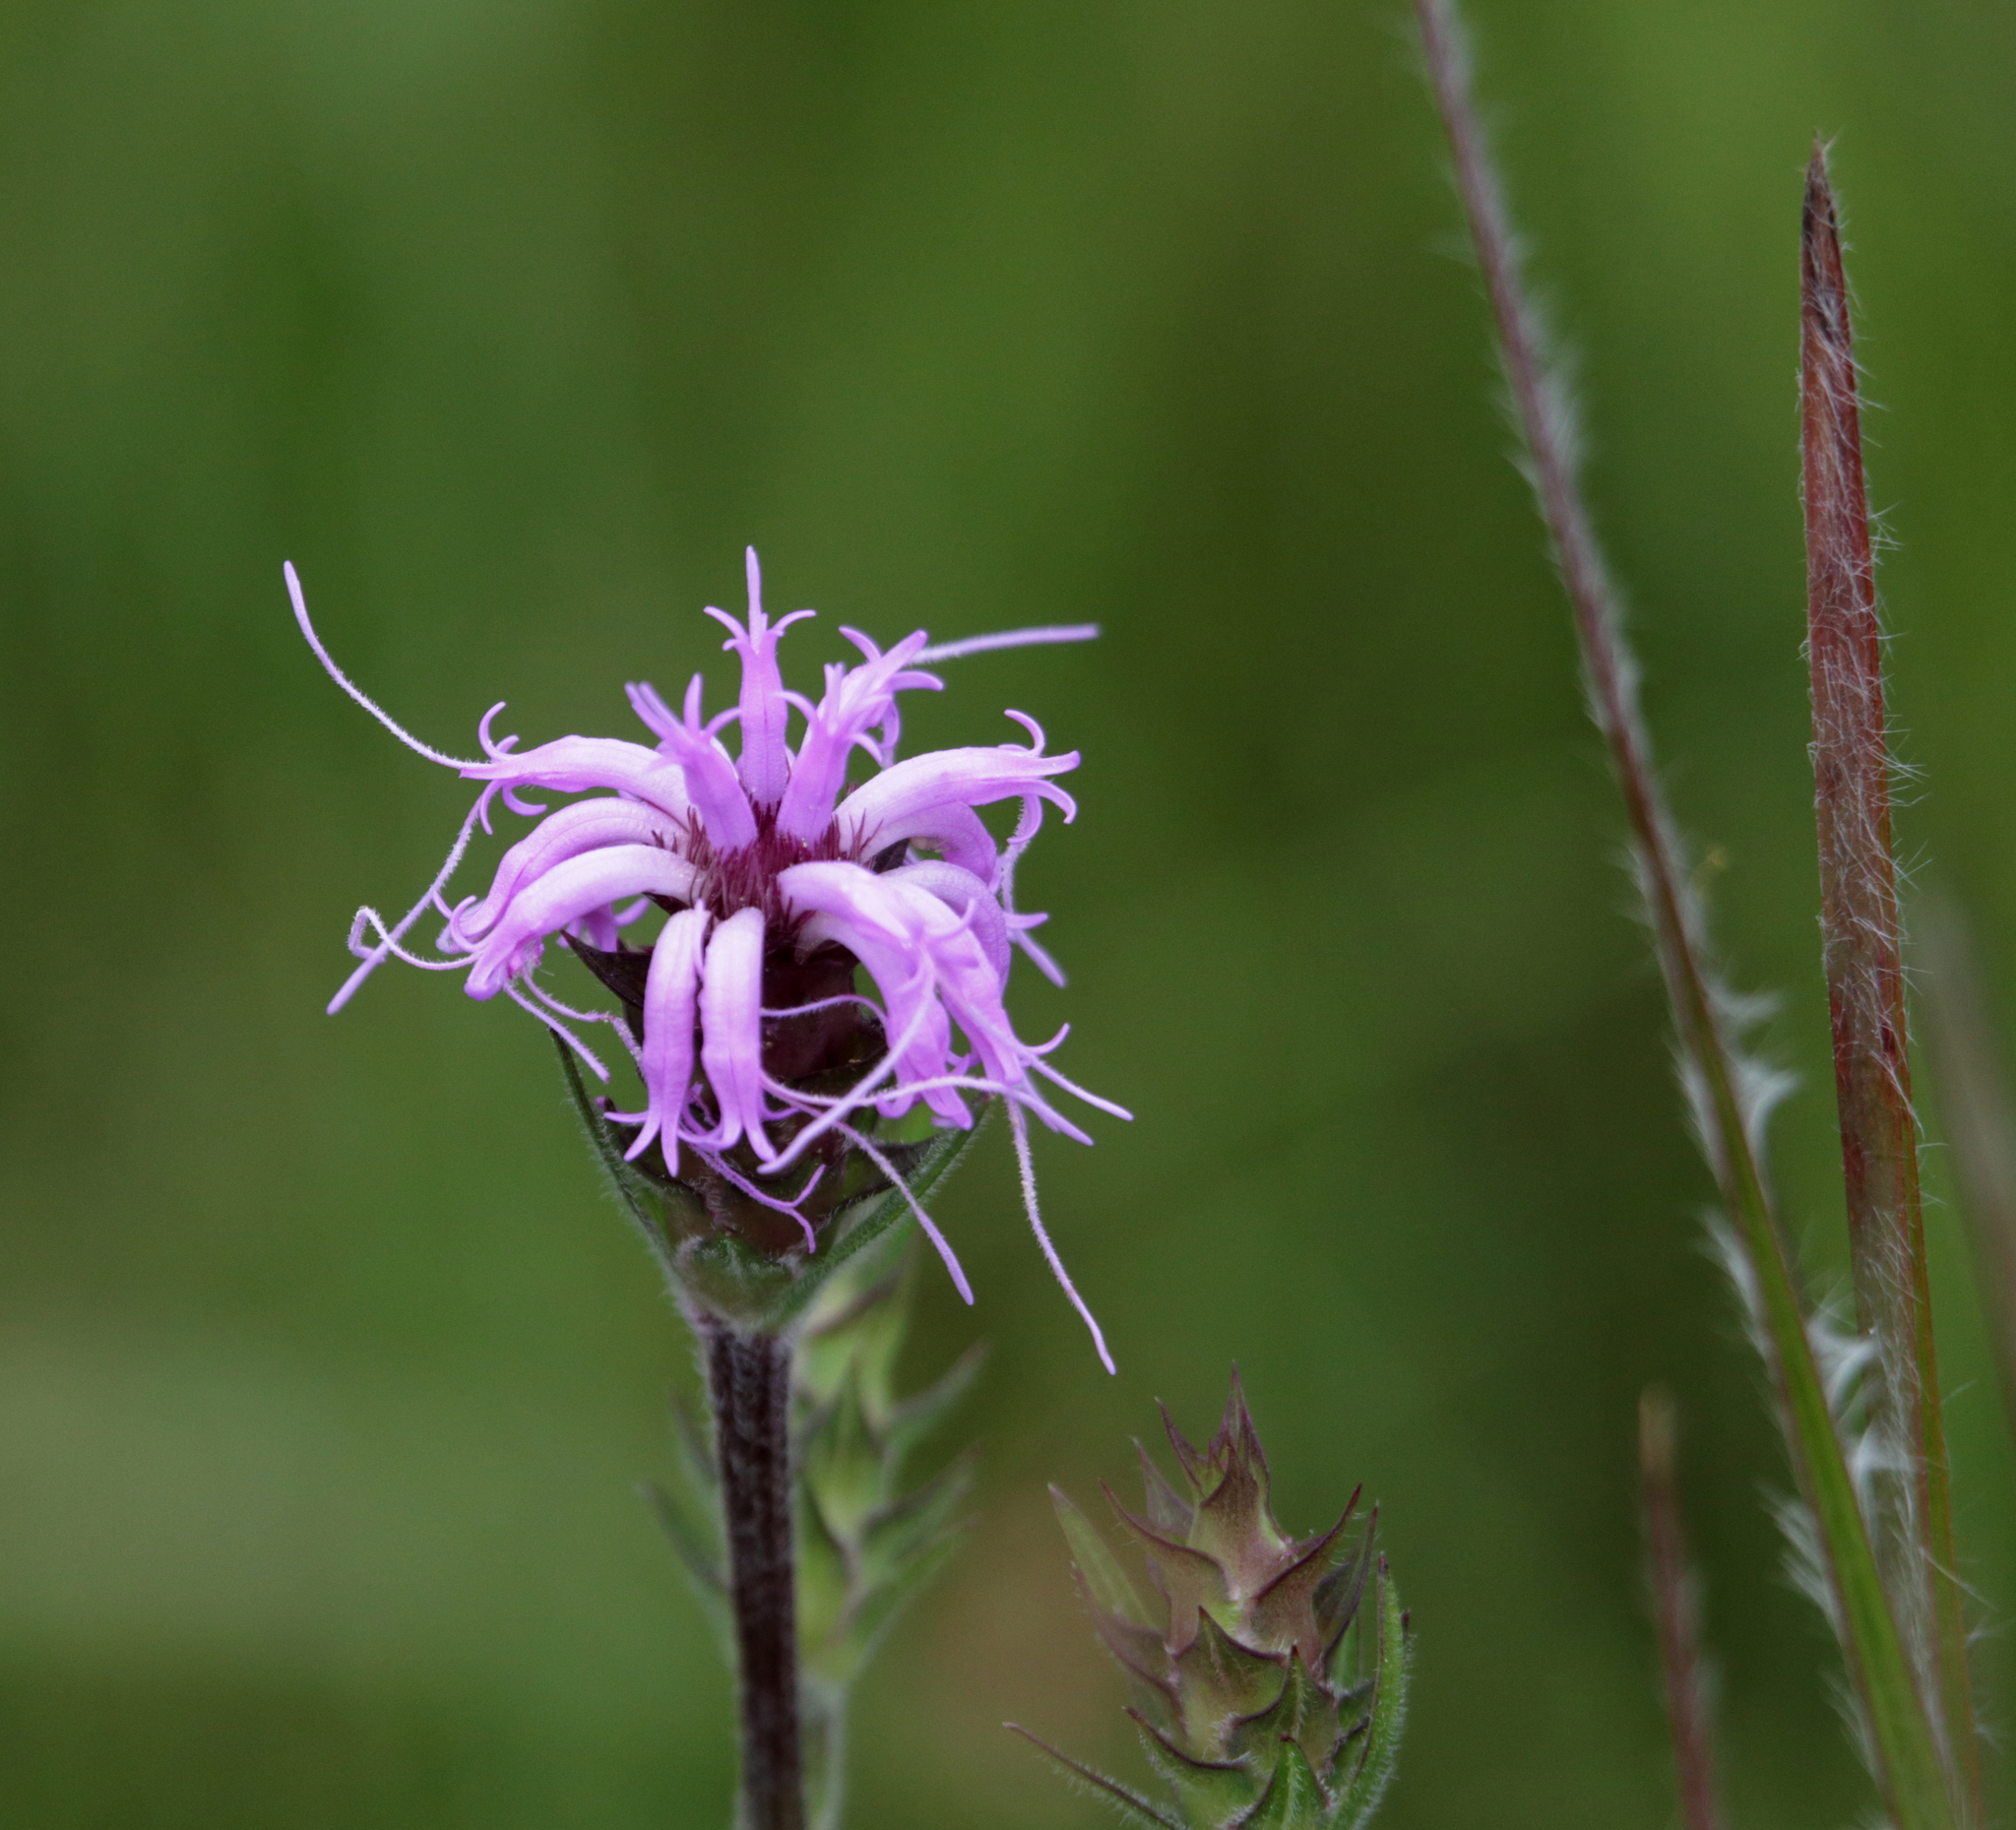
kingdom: Plantae
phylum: Tracheophyta
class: Magnoliopsida
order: Asterales
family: Asteraceae
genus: Liatris
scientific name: Liatris squarrosa
